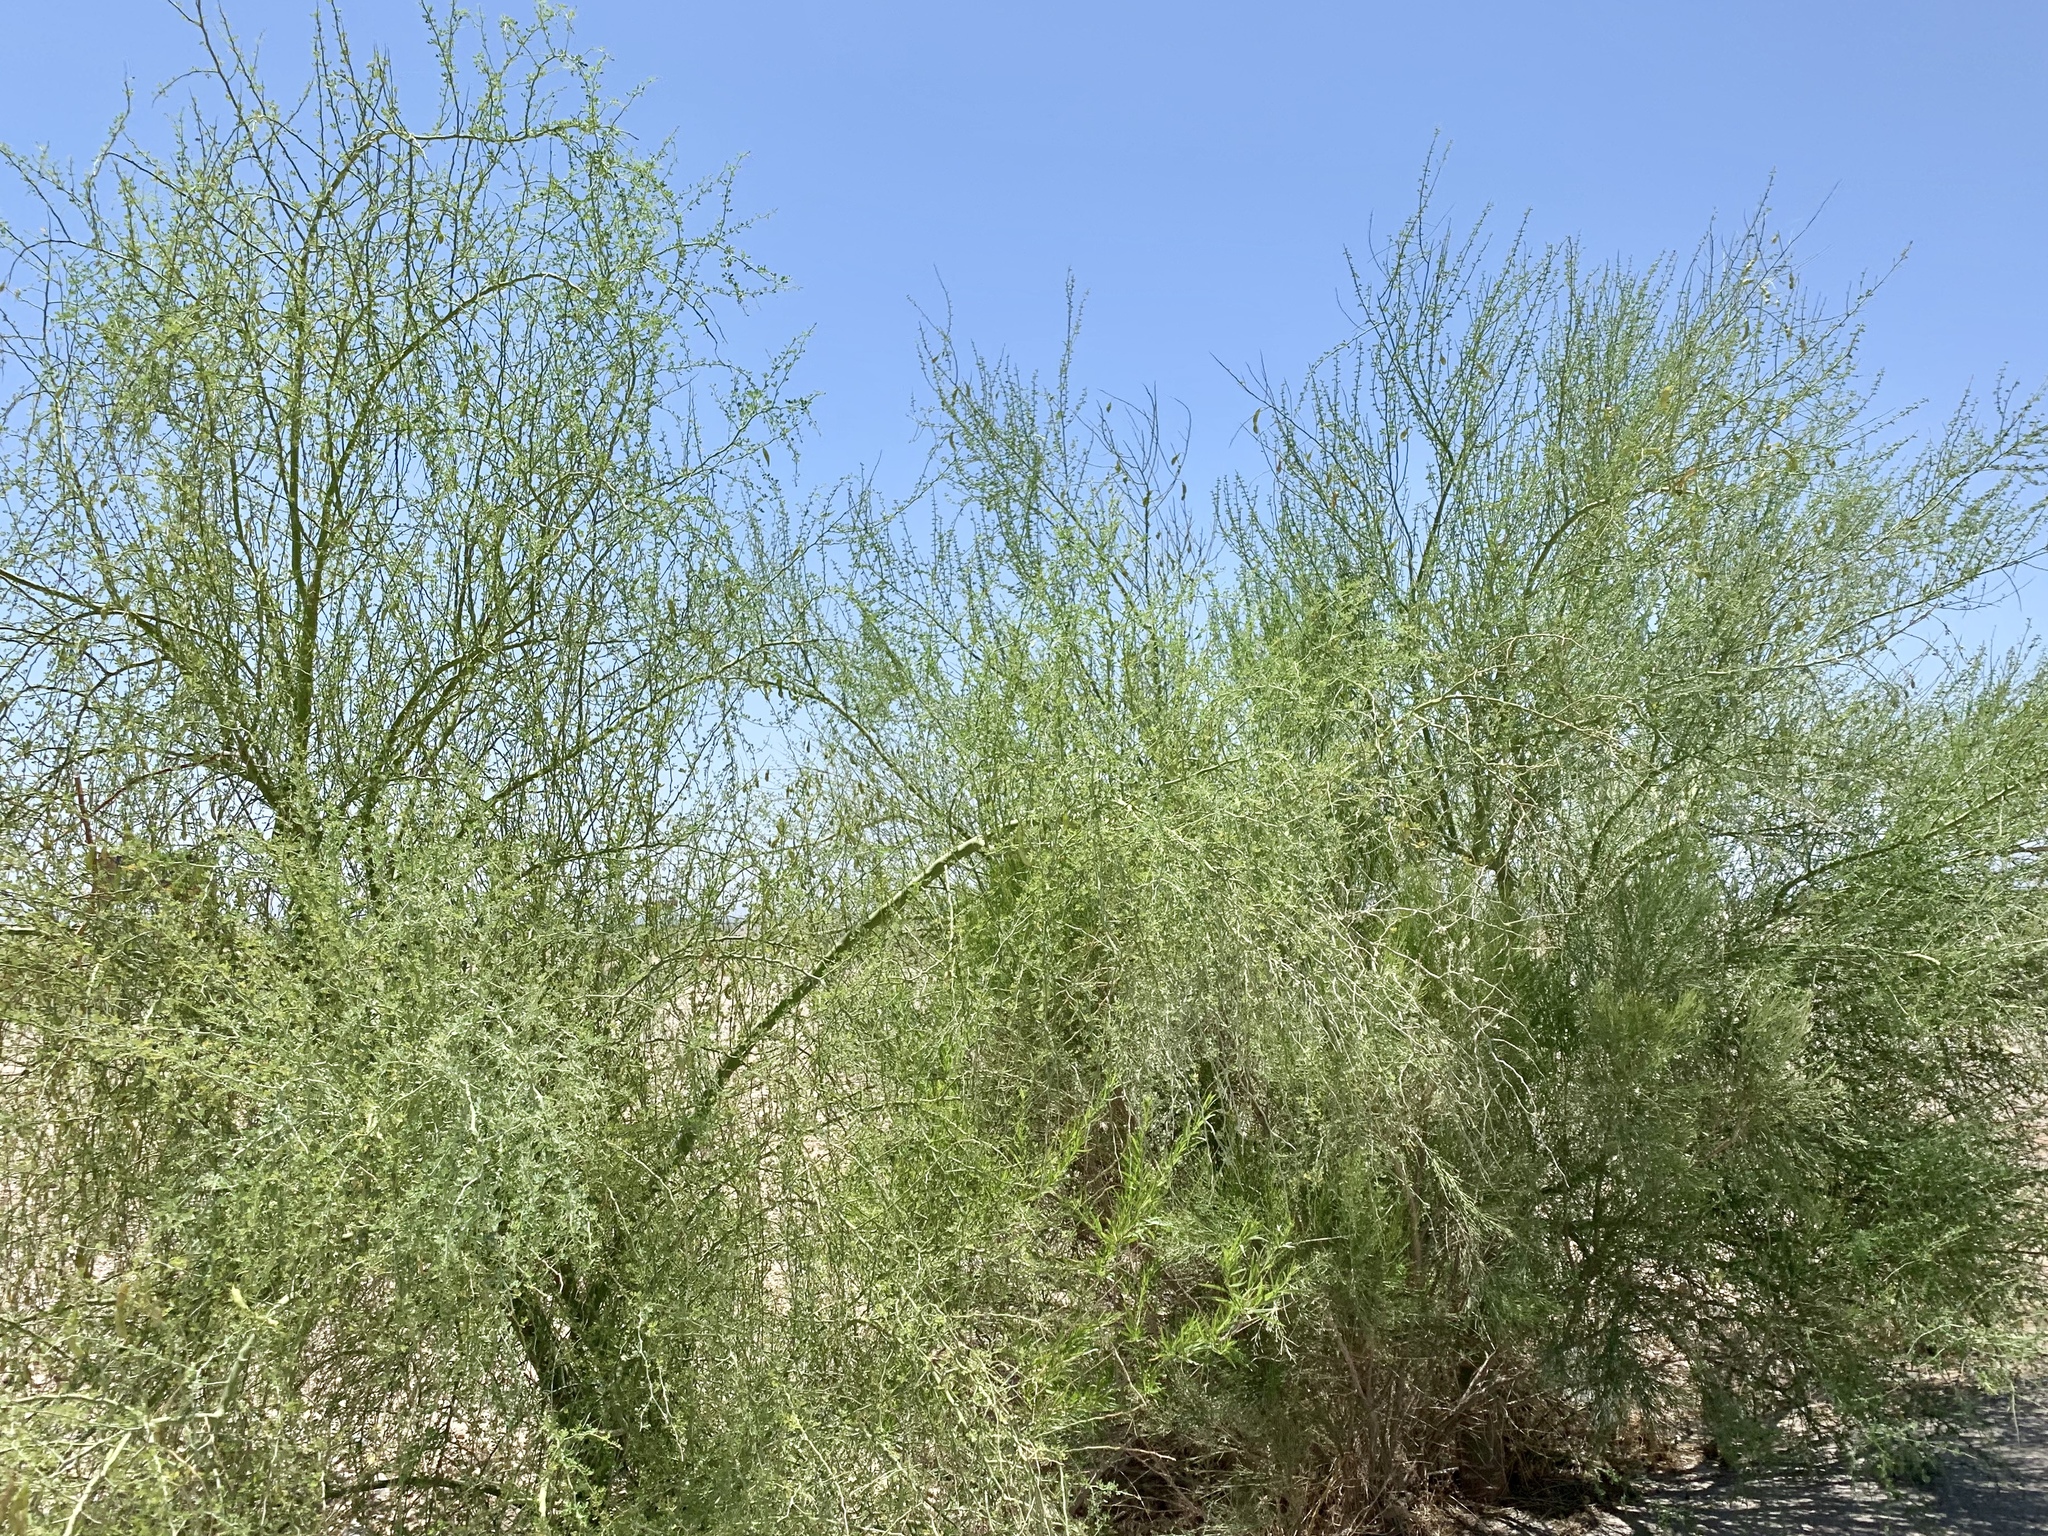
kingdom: Plantae
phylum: Tracheophyta
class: Magnoliopsida
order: Fabales
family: Fabaceae
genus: Parkinsonia
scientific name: Parkinsonia florida
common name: Blue paloverde
